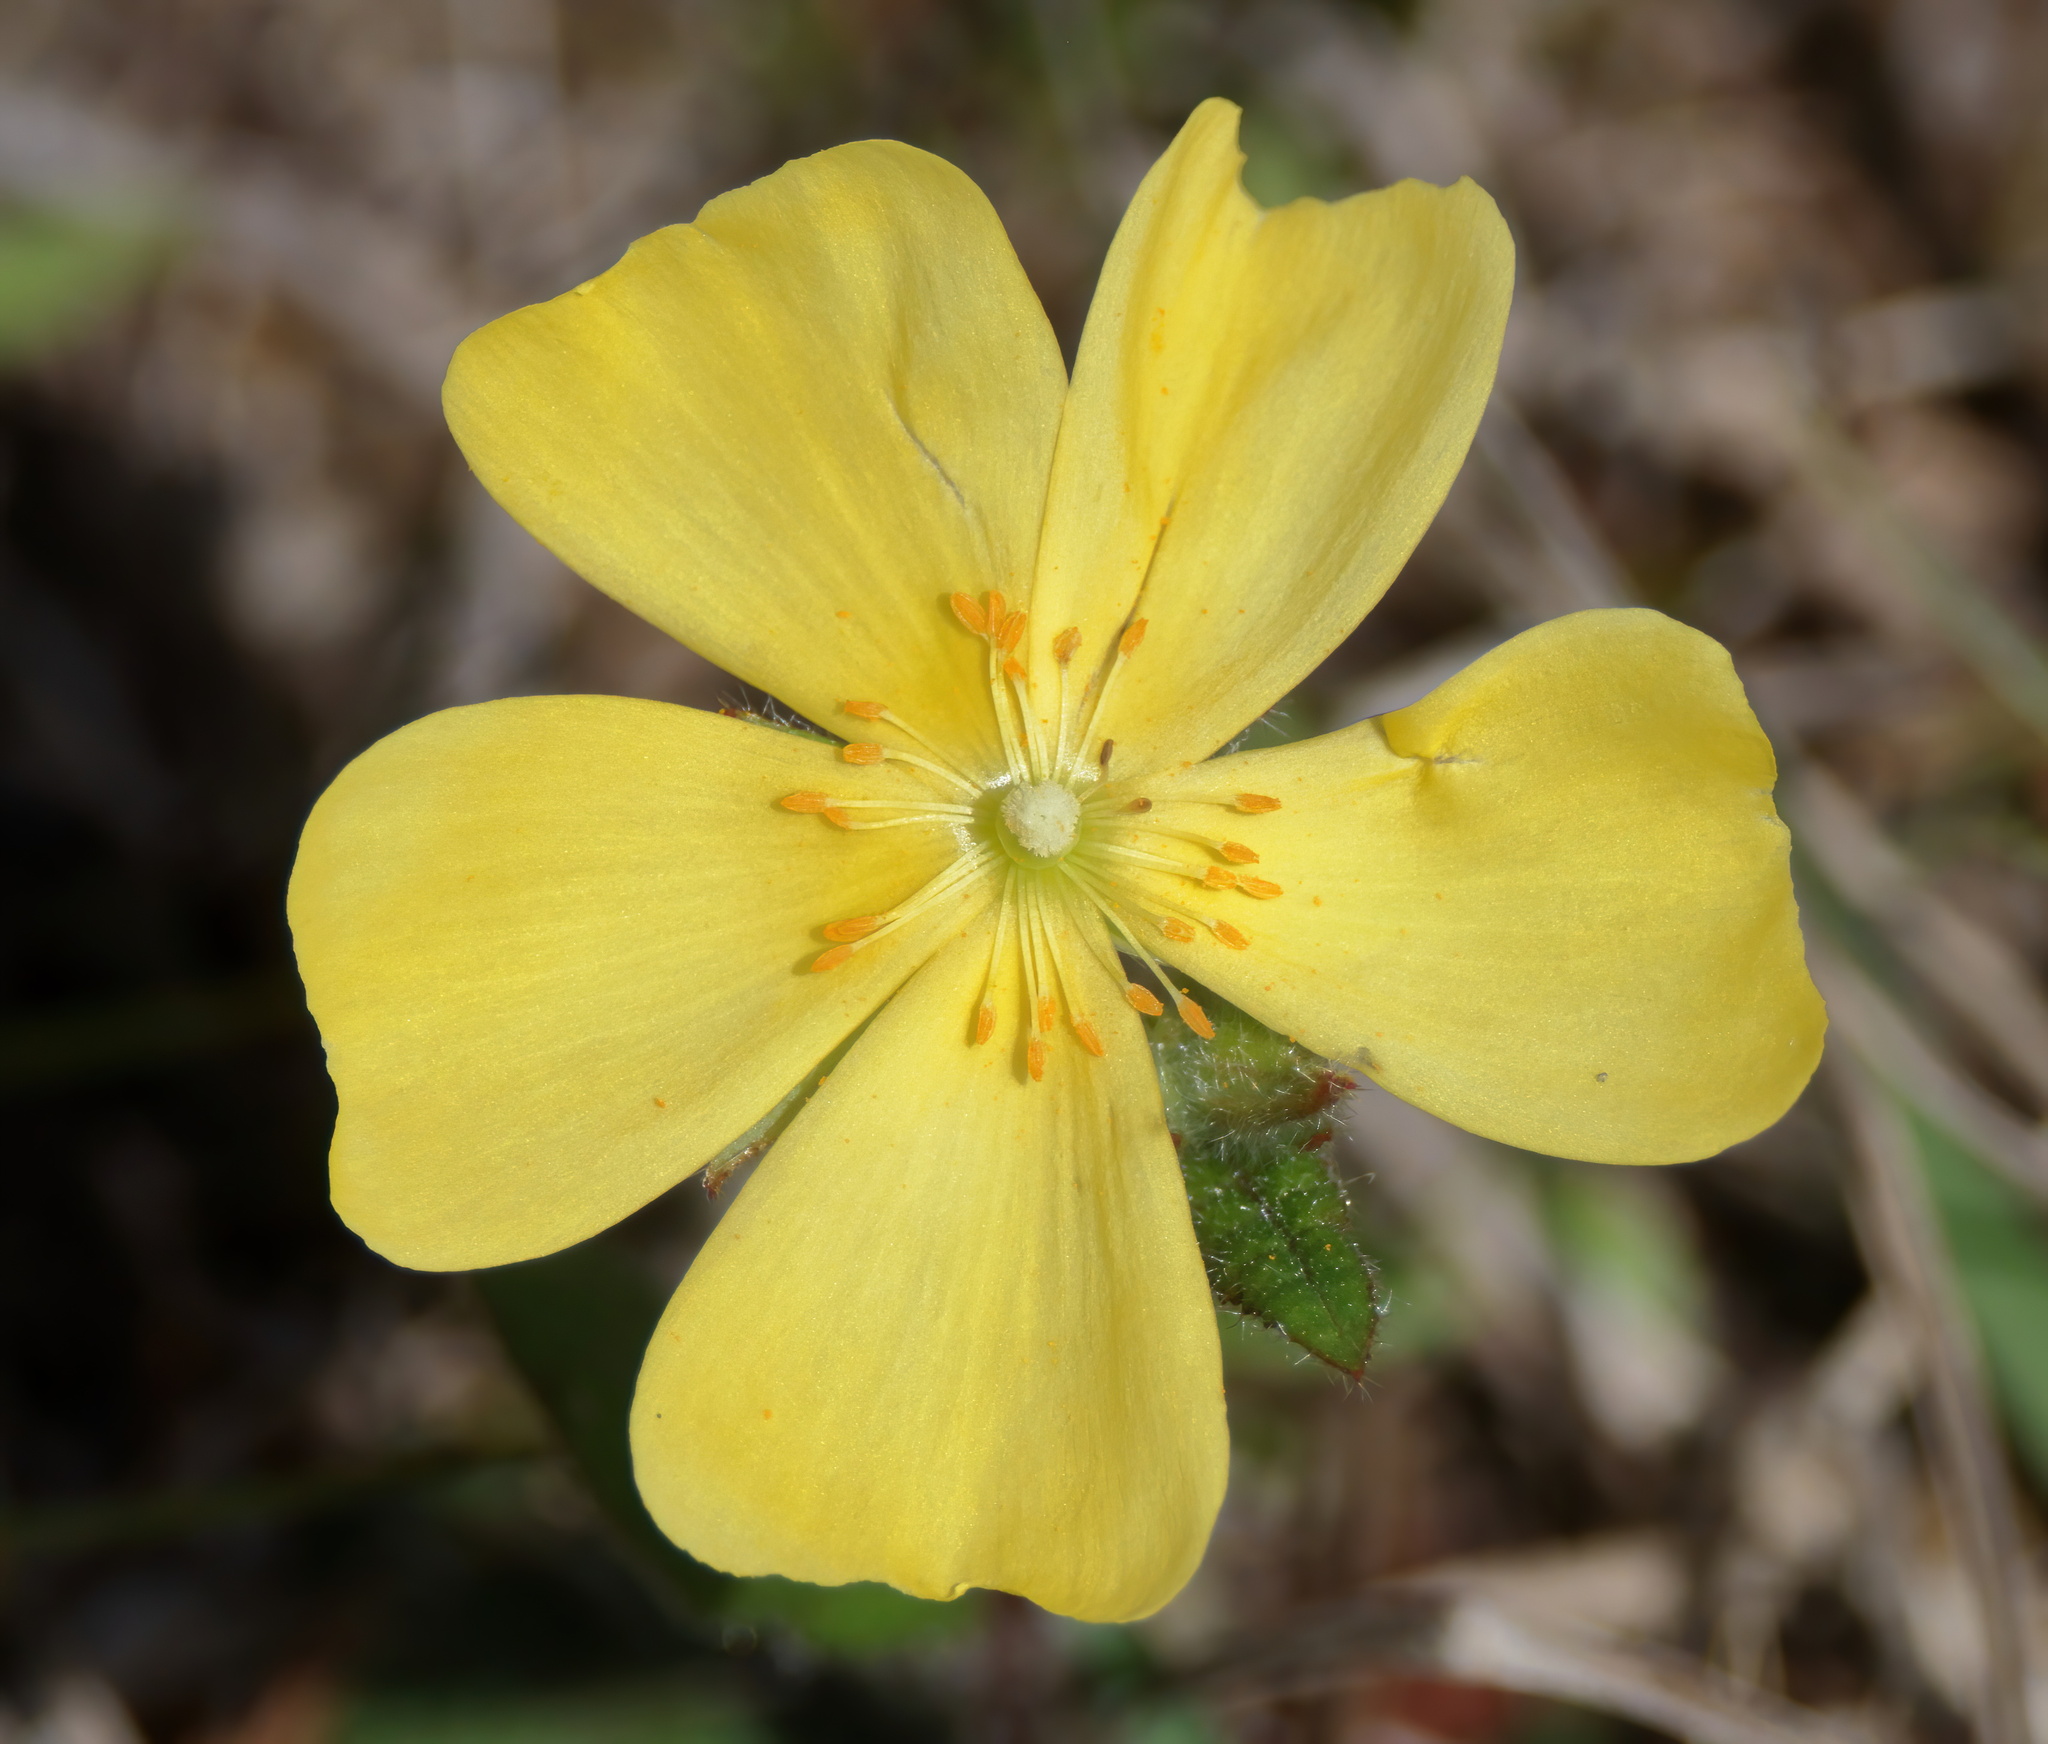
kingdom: Plantae
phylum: Tracheophyta
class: Magnoliopsida
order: Malvales
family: Cistaceae
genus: Crocanthemum
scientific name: Crocanthemum carolinianum
